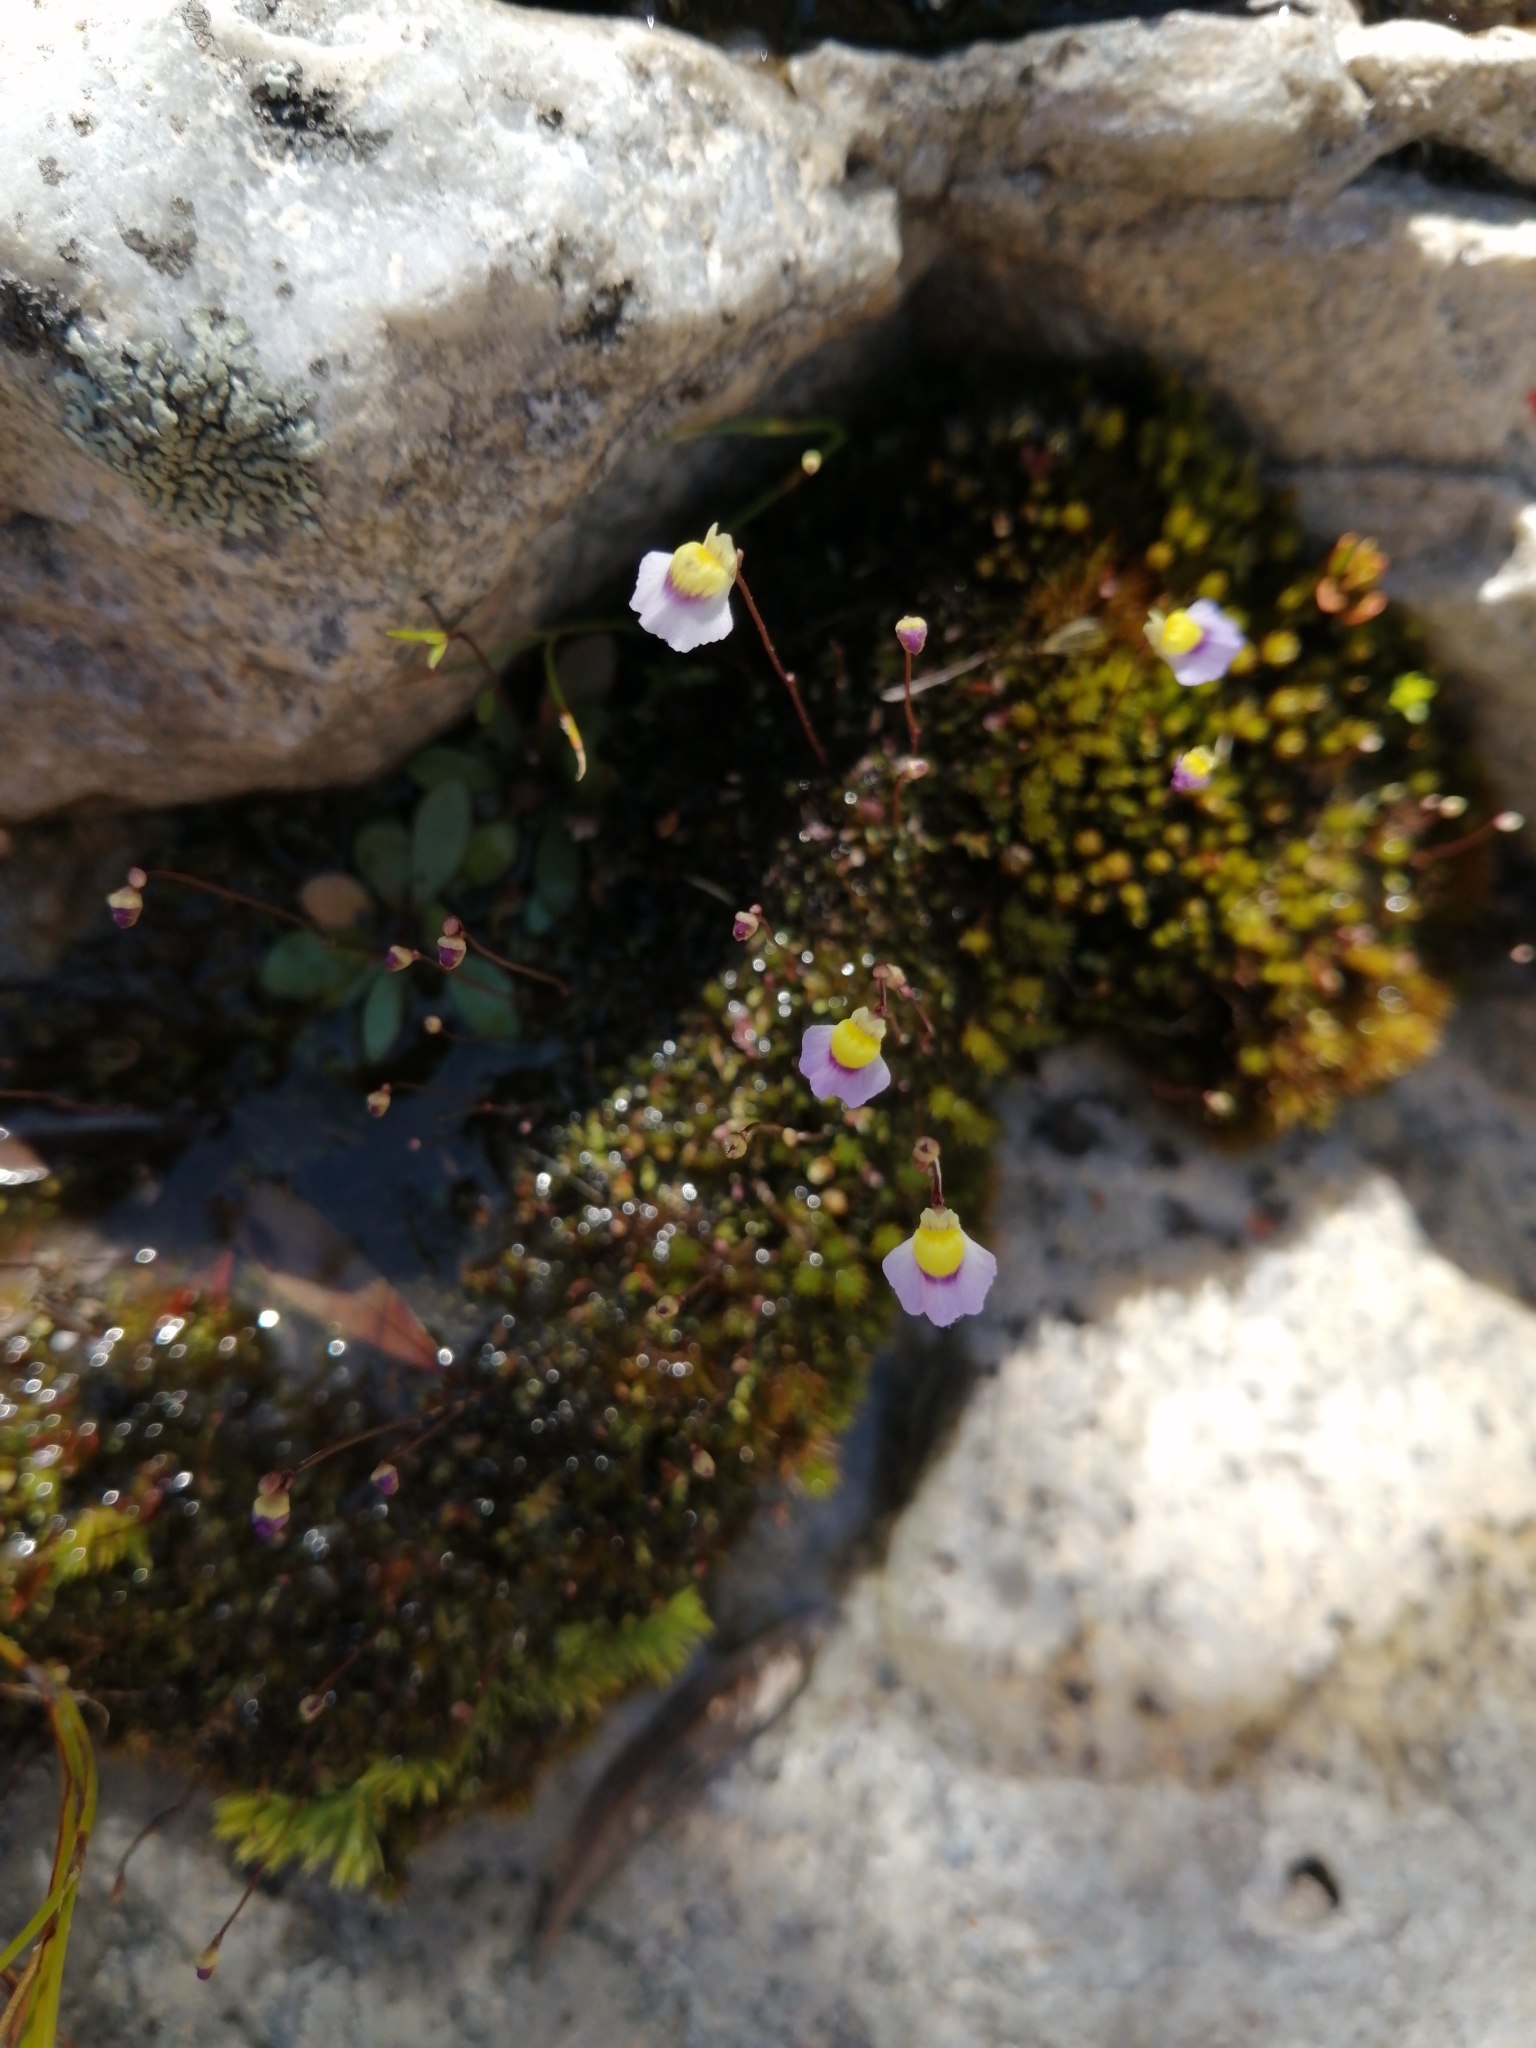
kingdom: Plantae
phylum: Tracheophyta
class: Magnoliopsida
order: Lamiales
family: Lentibulariaceae
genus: Utricularia
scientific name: Utricularia bisquamata
